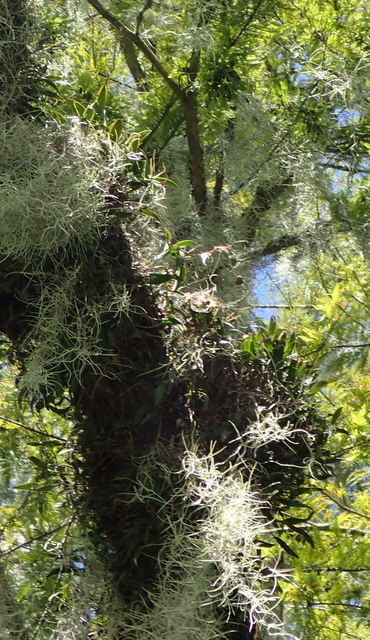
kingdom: Plantae
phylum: Tracheophyta
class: Liliopsida
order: Asparagales
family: Orchidaceae
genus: Epidendrum
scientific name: Epidendrum conopseum
